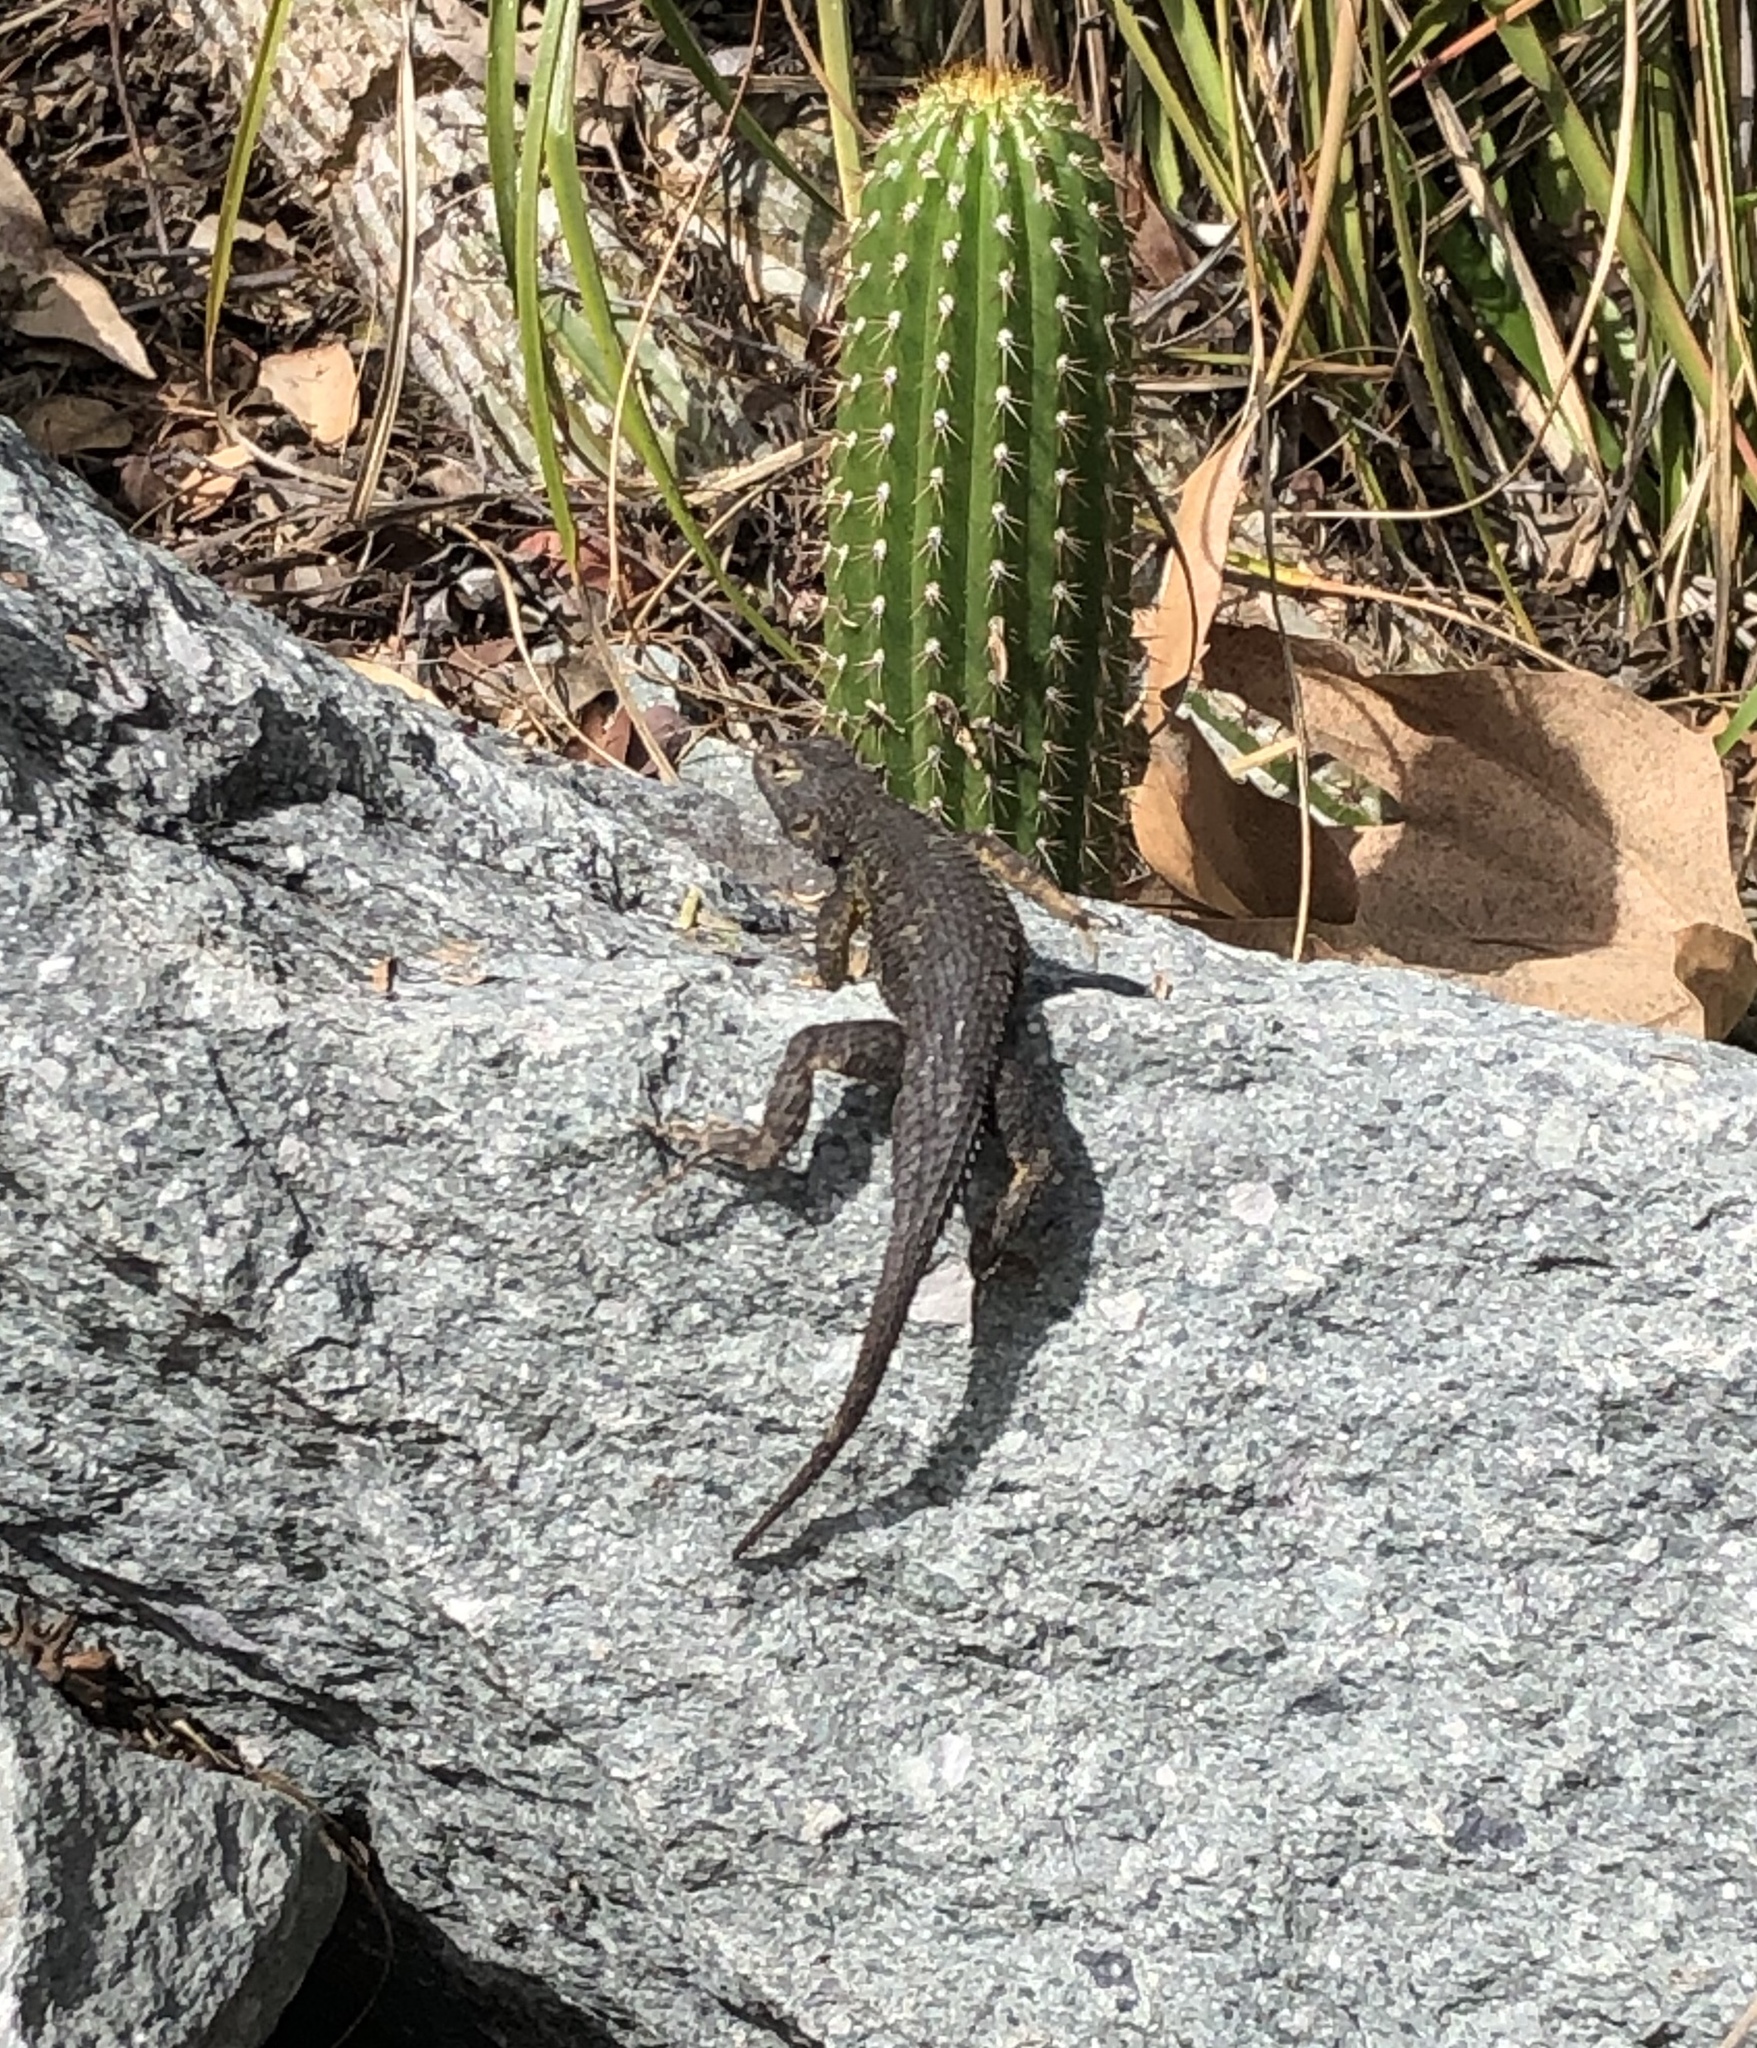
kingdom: Animalia
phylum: Chordata
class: Squamata
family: Phrynosomatidae
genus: Sceloporus
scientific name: Sceloporus occidentalis
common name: Western fence lizard
